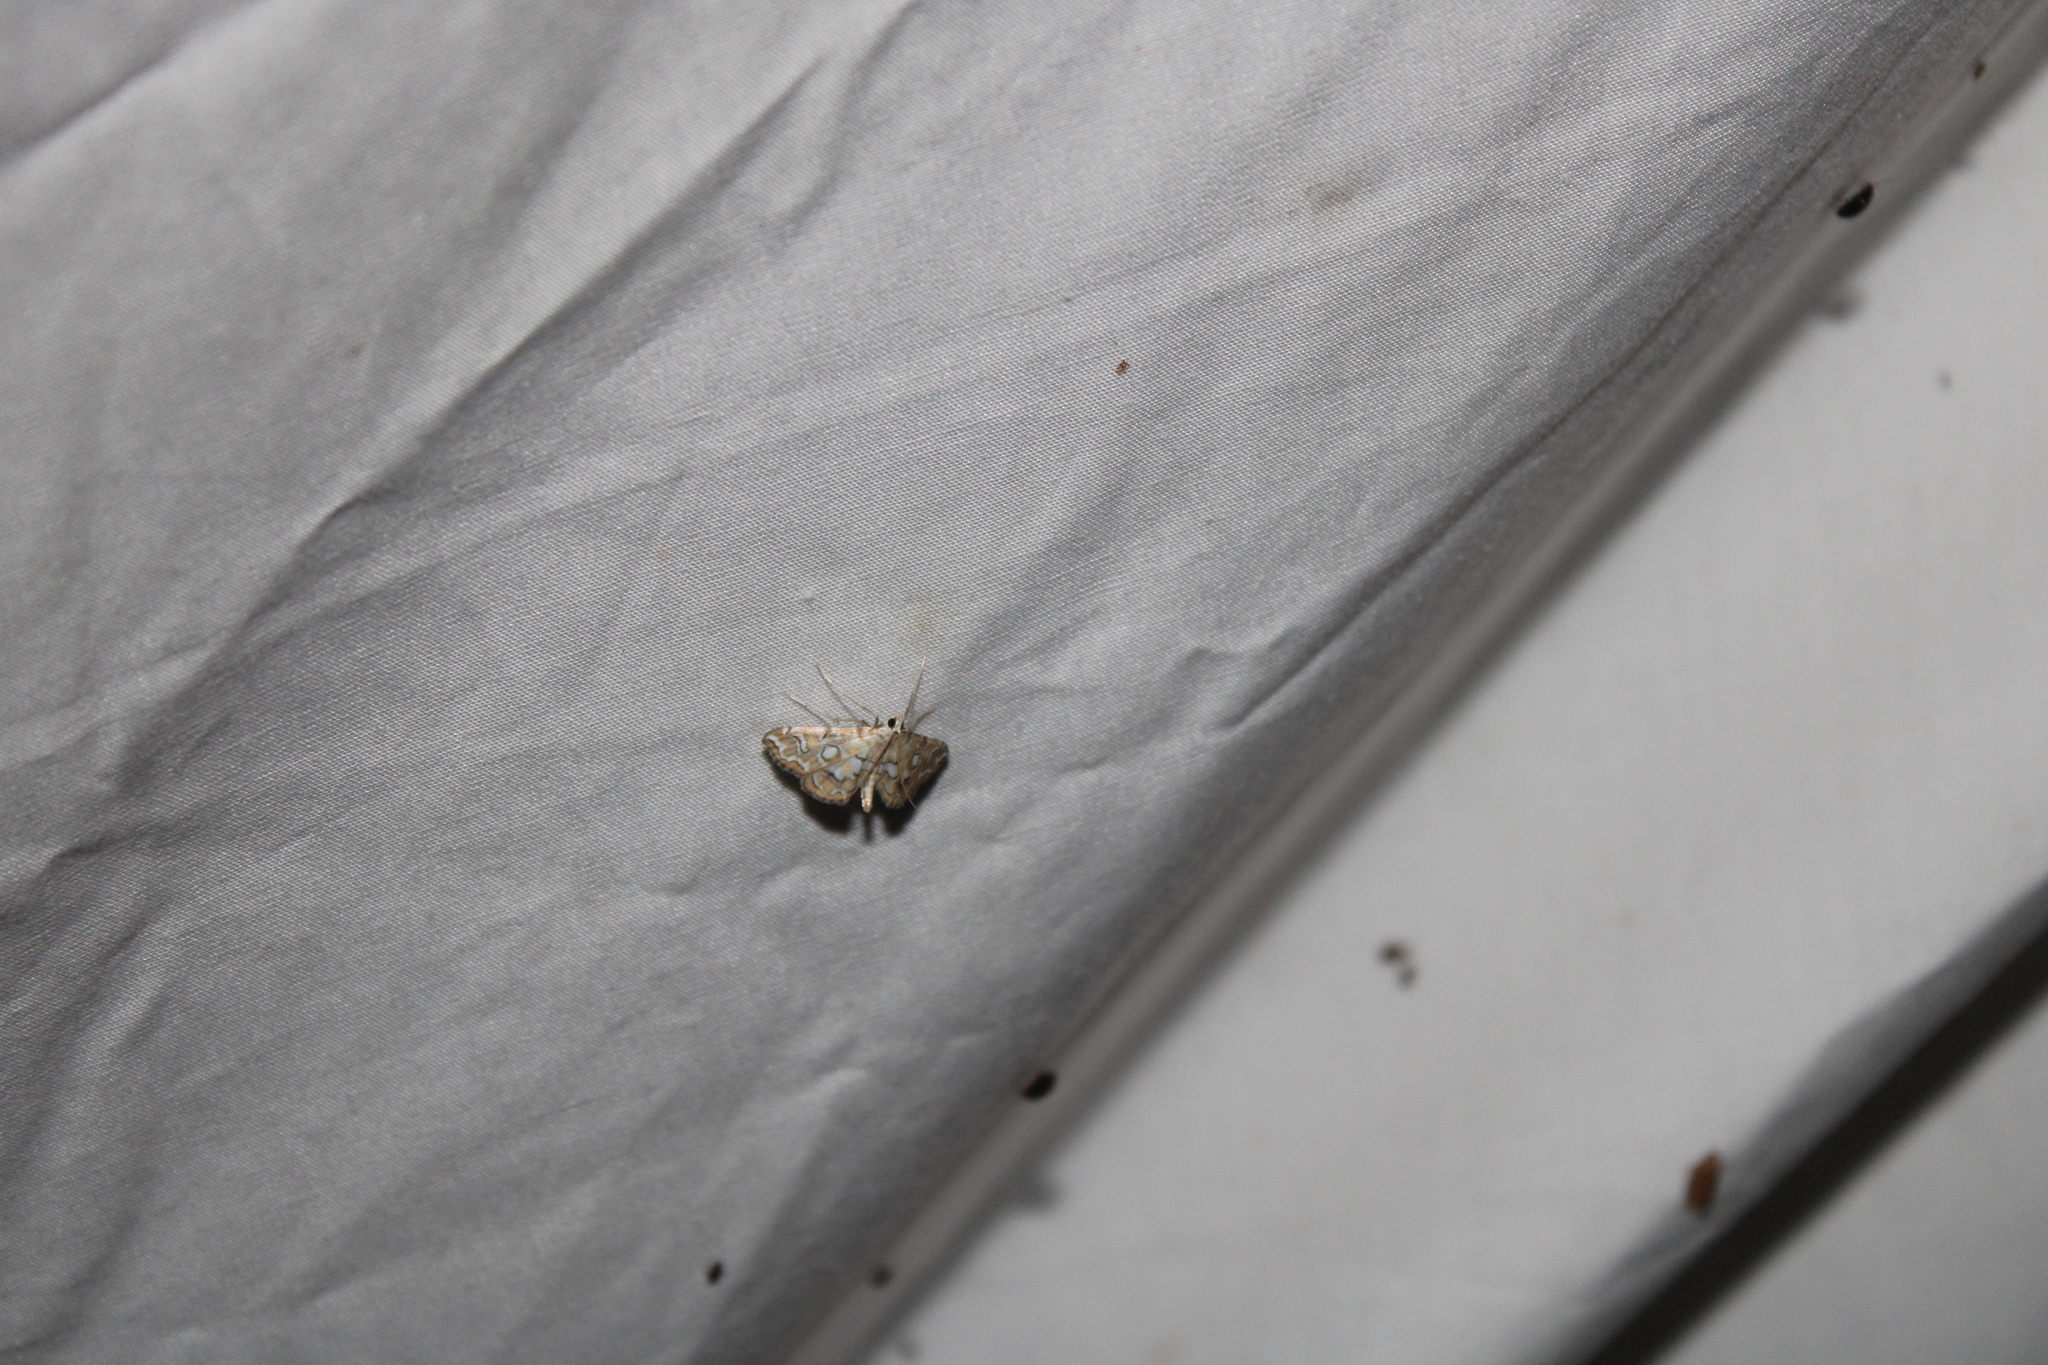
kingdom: Animalia
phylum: Arthropoda
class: Insecta
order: Lepidoptera
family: Crambidae
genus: Elophila
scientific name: Elophila icciusalis
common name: Pondside pyralid moth
